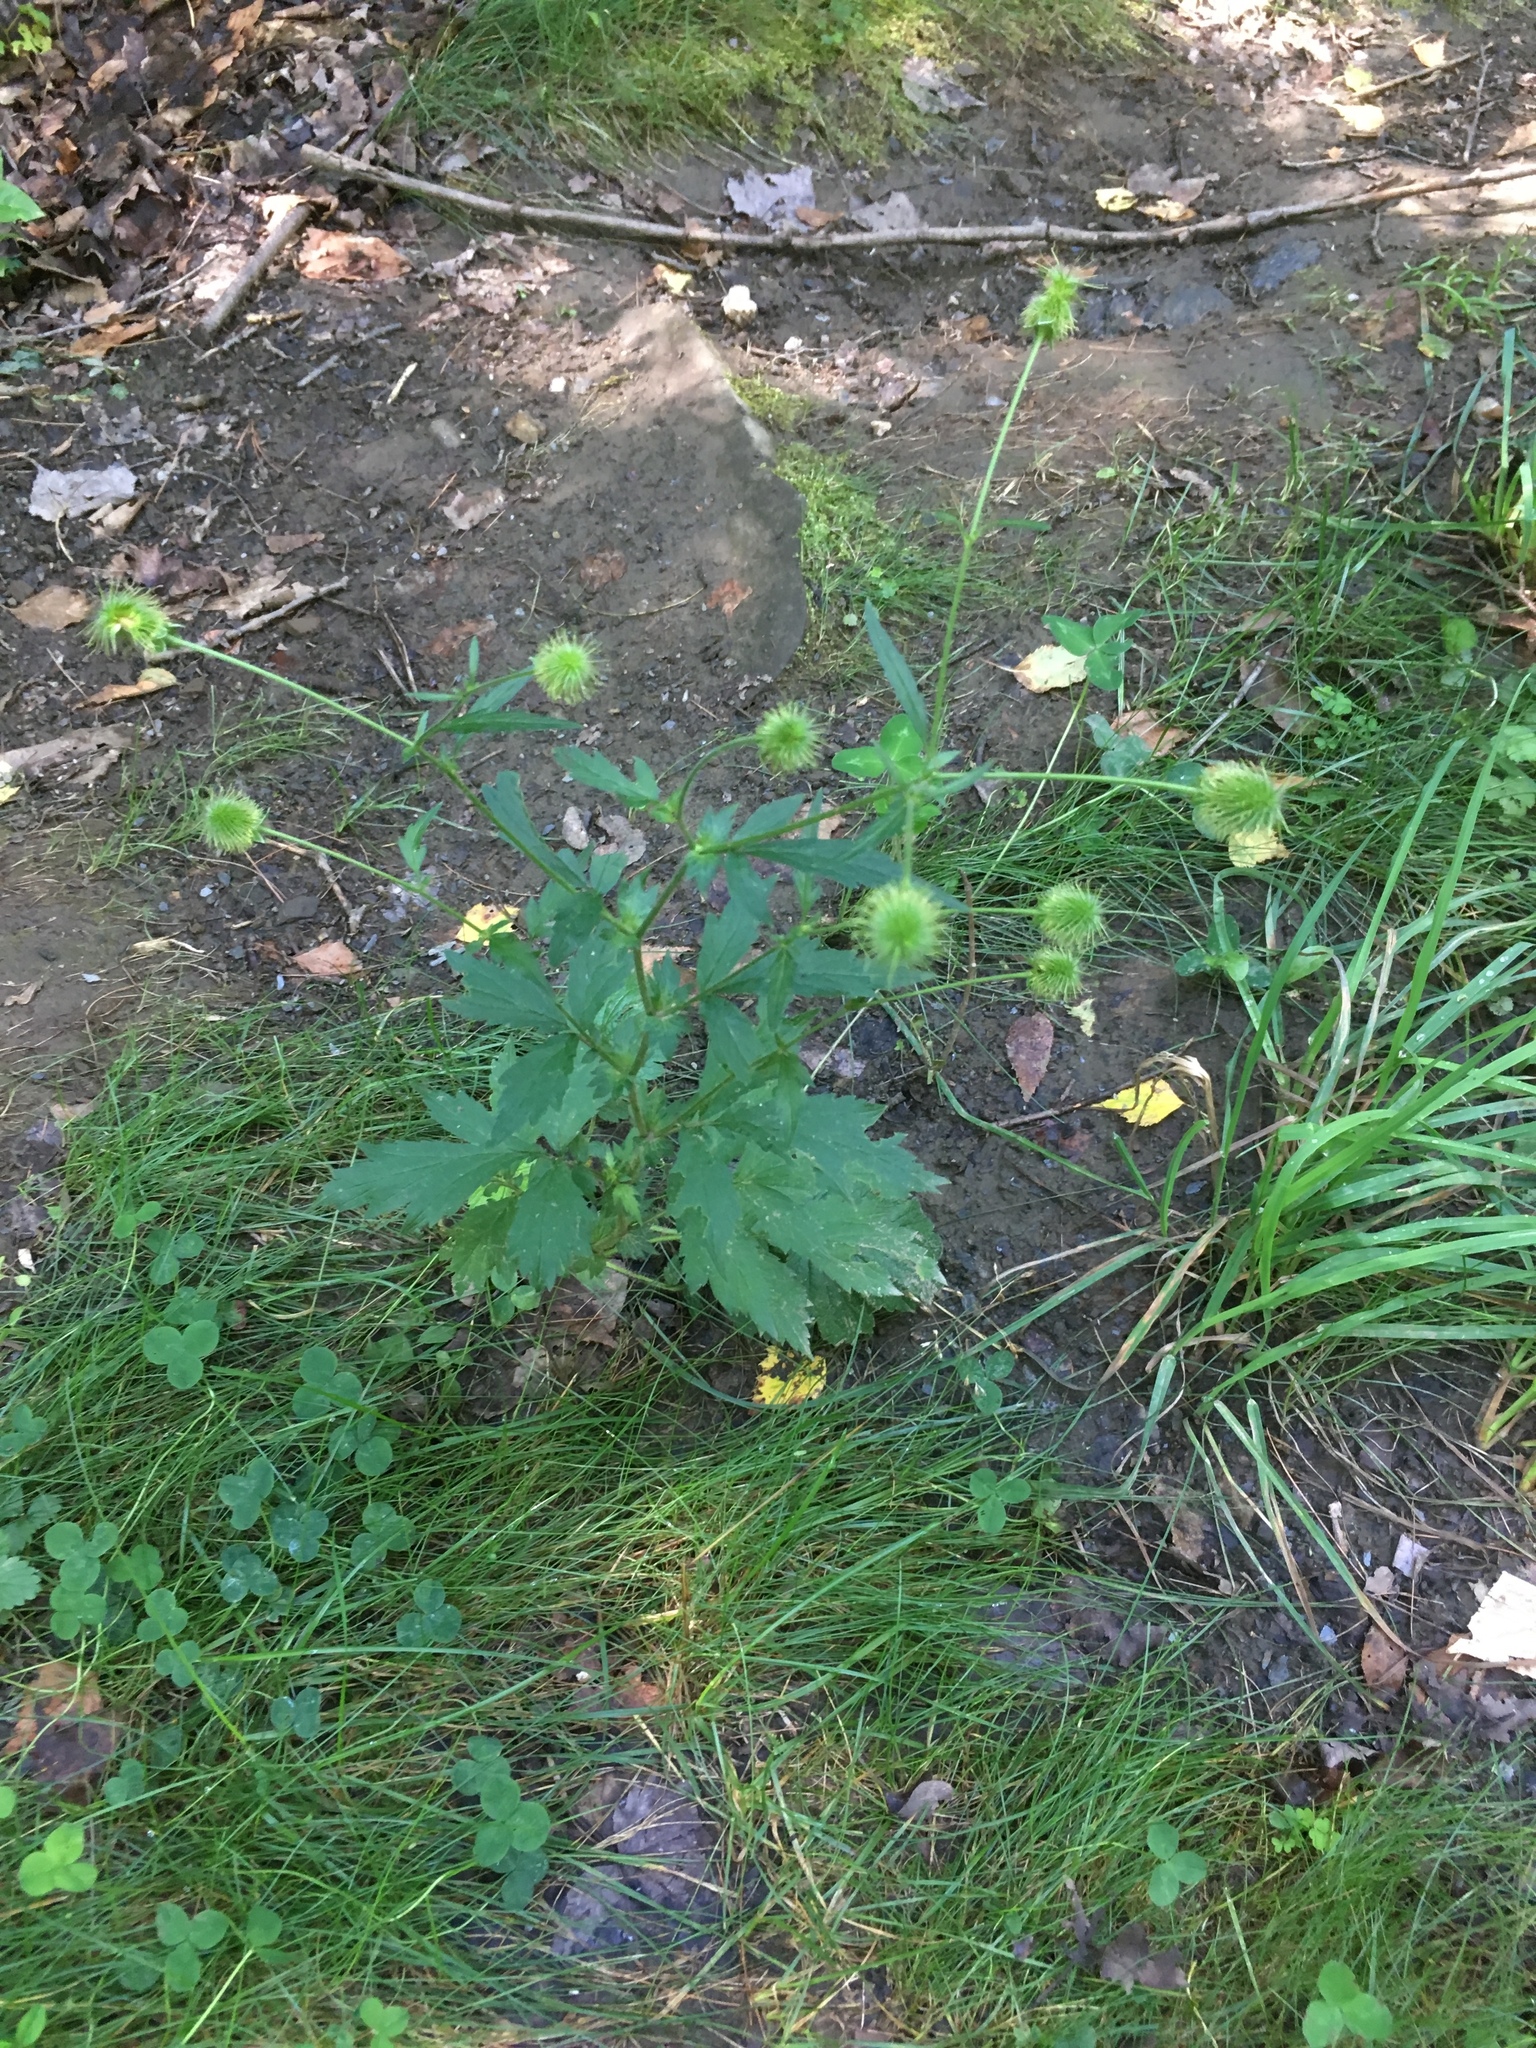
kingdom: Plantae
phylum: Tracheophyta
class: Magnoliopsida
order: Rosales
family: Rosaceae
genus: Geum
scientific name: Geum canadense
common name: White avens
